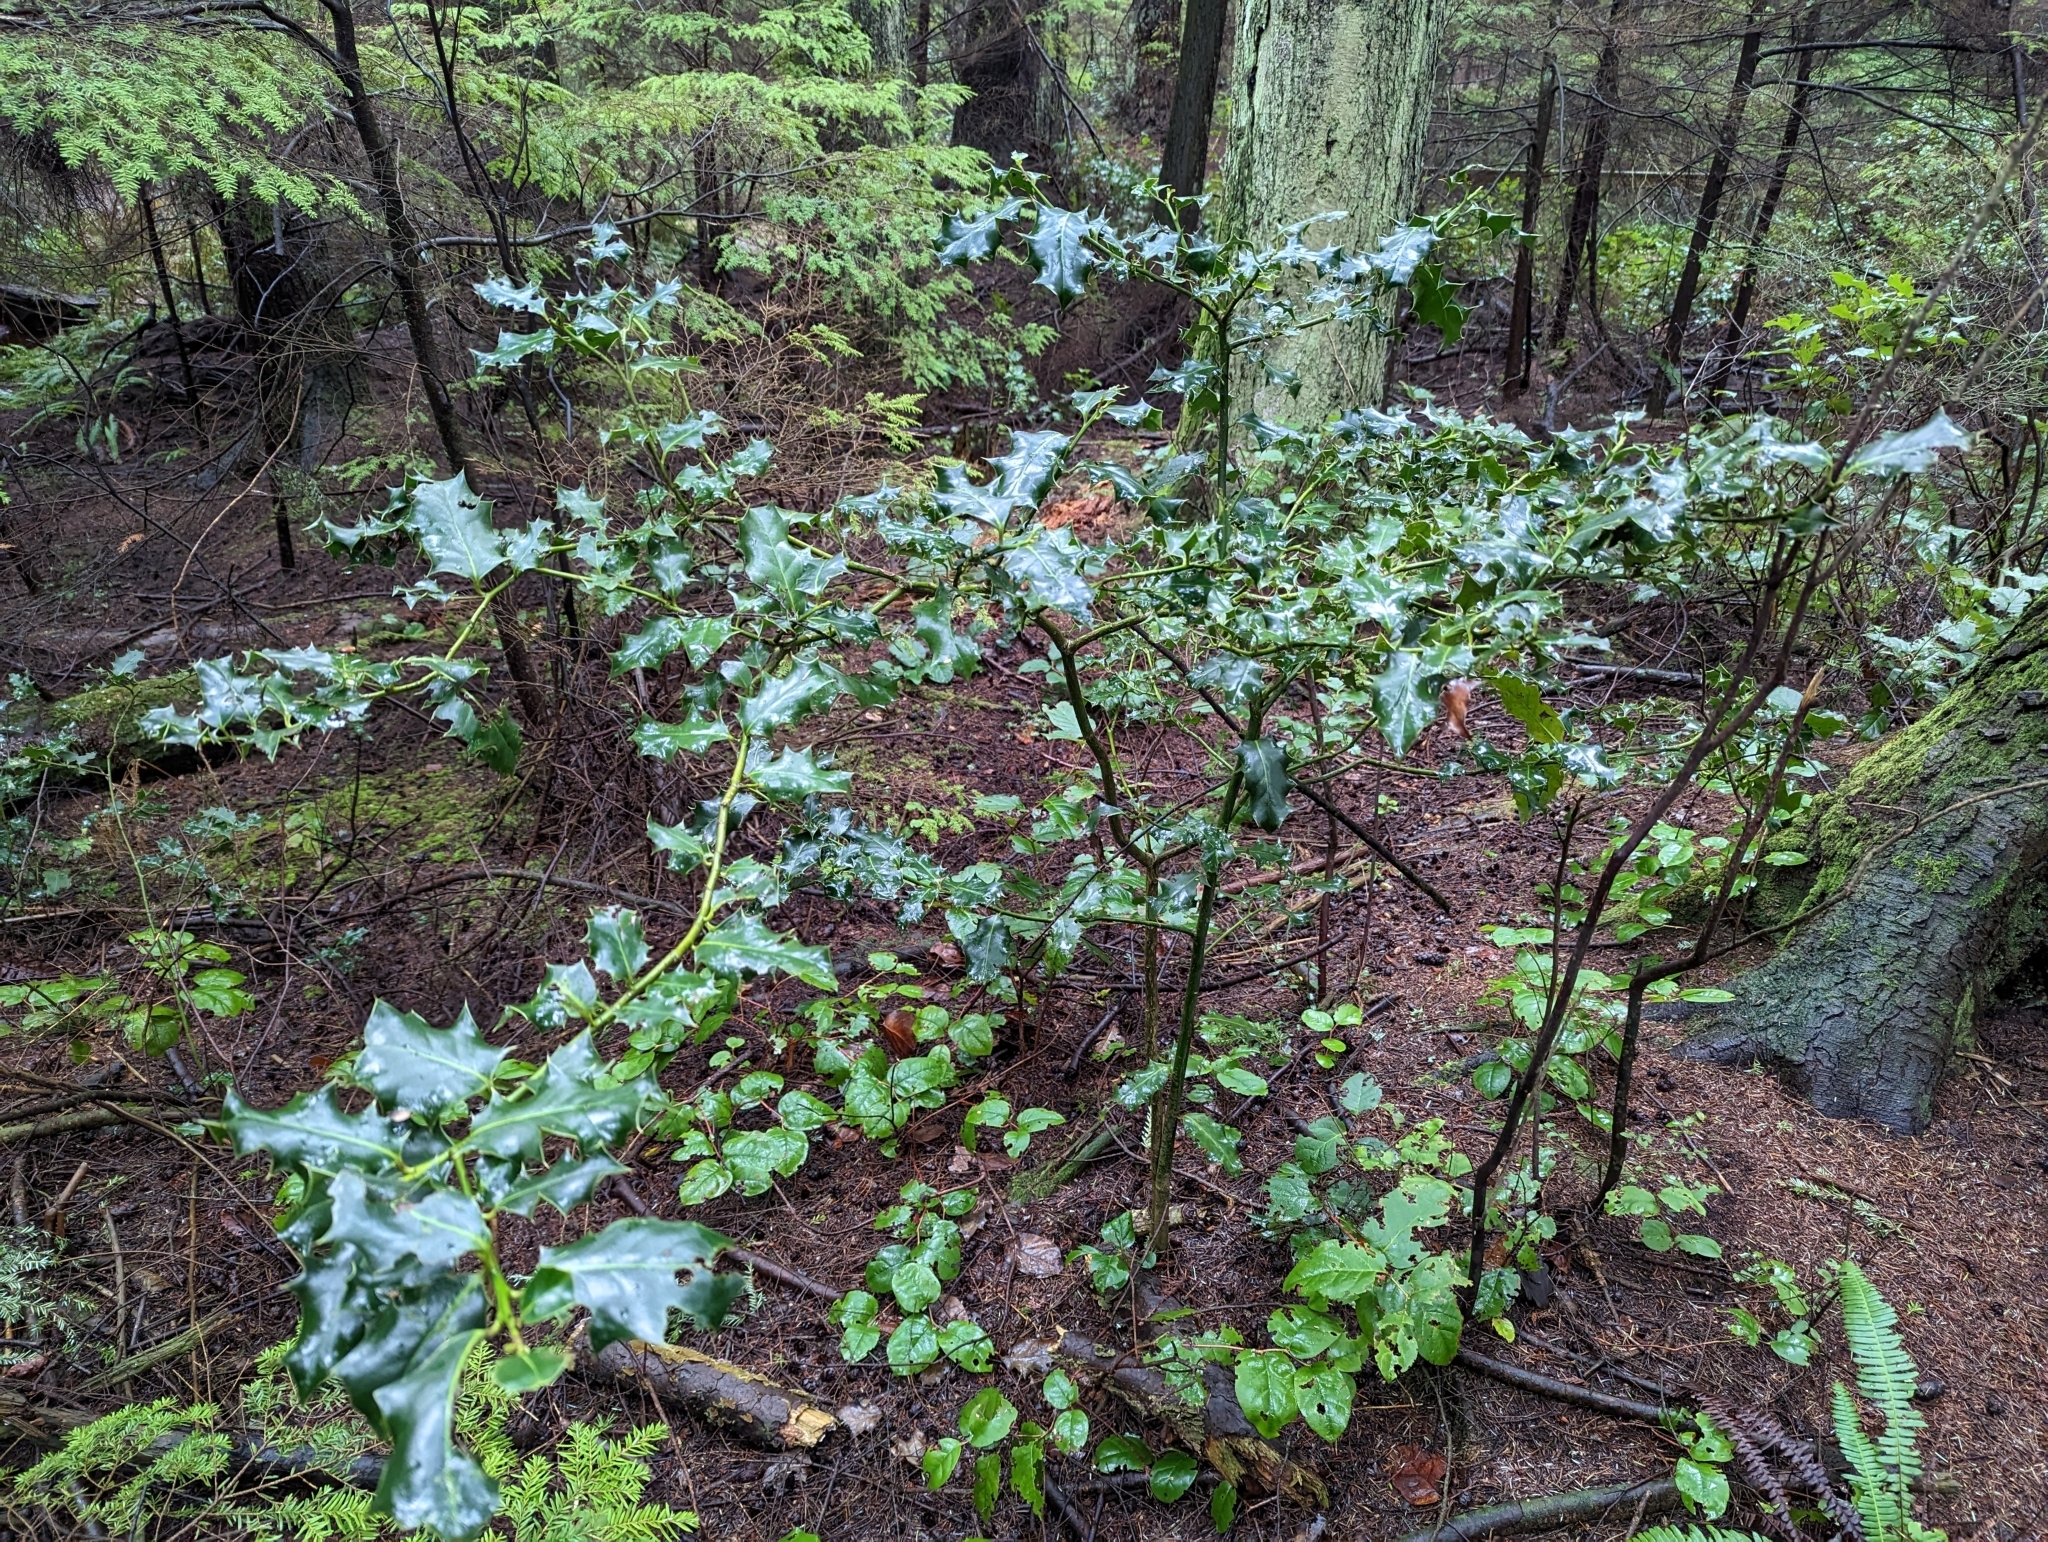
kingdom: Plantae
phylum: Tracheophyta
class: Magnoliopsida
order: Aquifoliales
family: Aquifoliaceae
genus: Ilex
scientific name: Ilex aquifolium
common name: English holly
